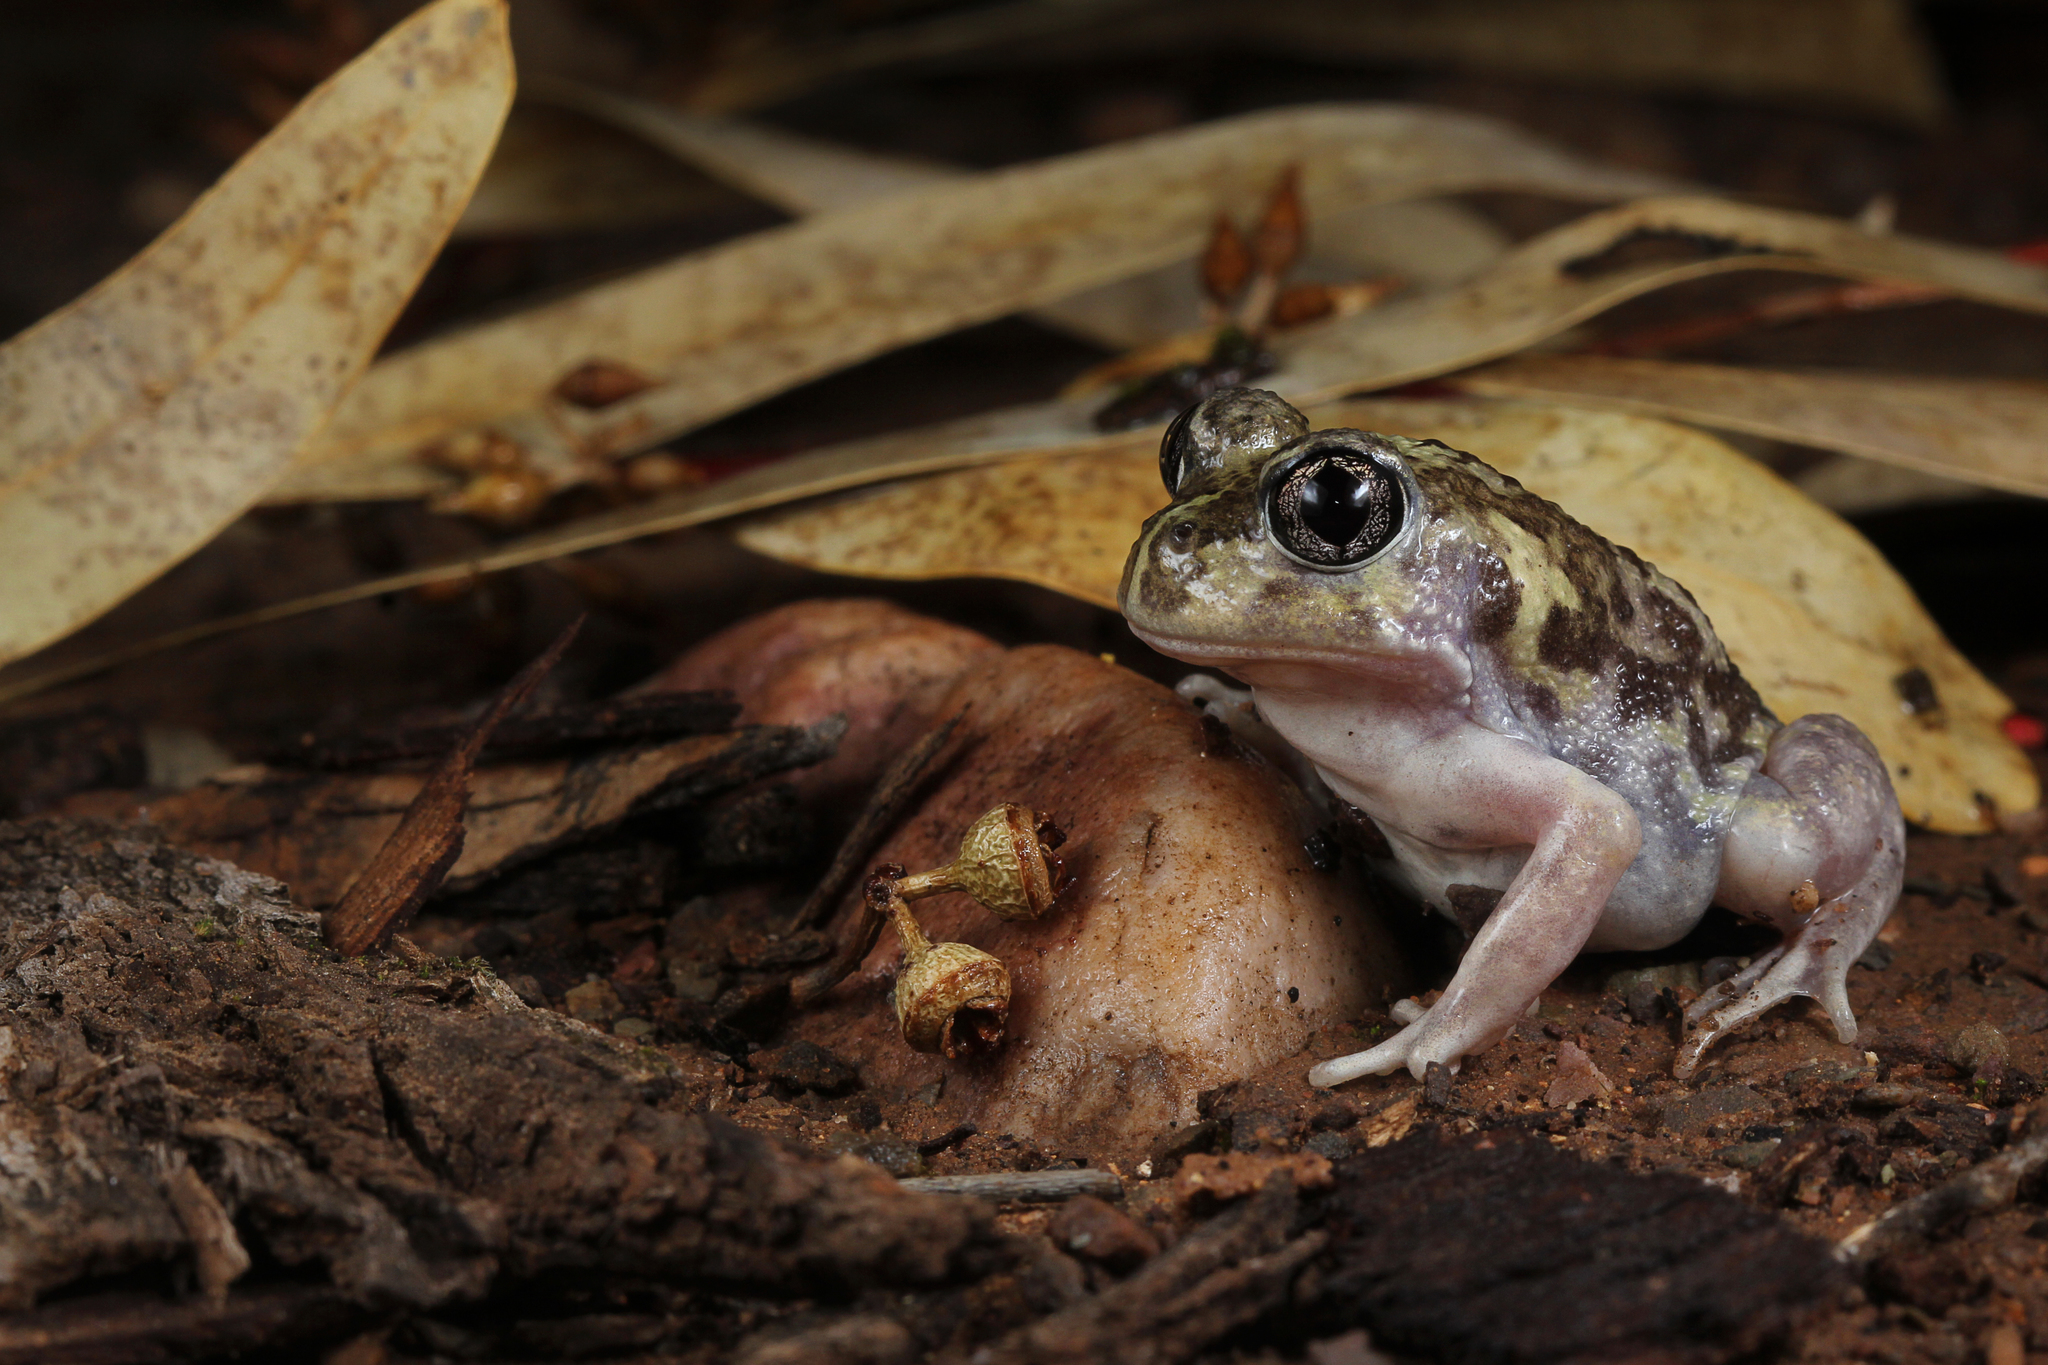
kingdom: Animalia
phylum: Chordata
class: Amphibia
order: Anura
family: Limnodynastidae
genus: Neobatrachus
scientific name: Neobatrachus pictus
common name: Painted burrowing frog
